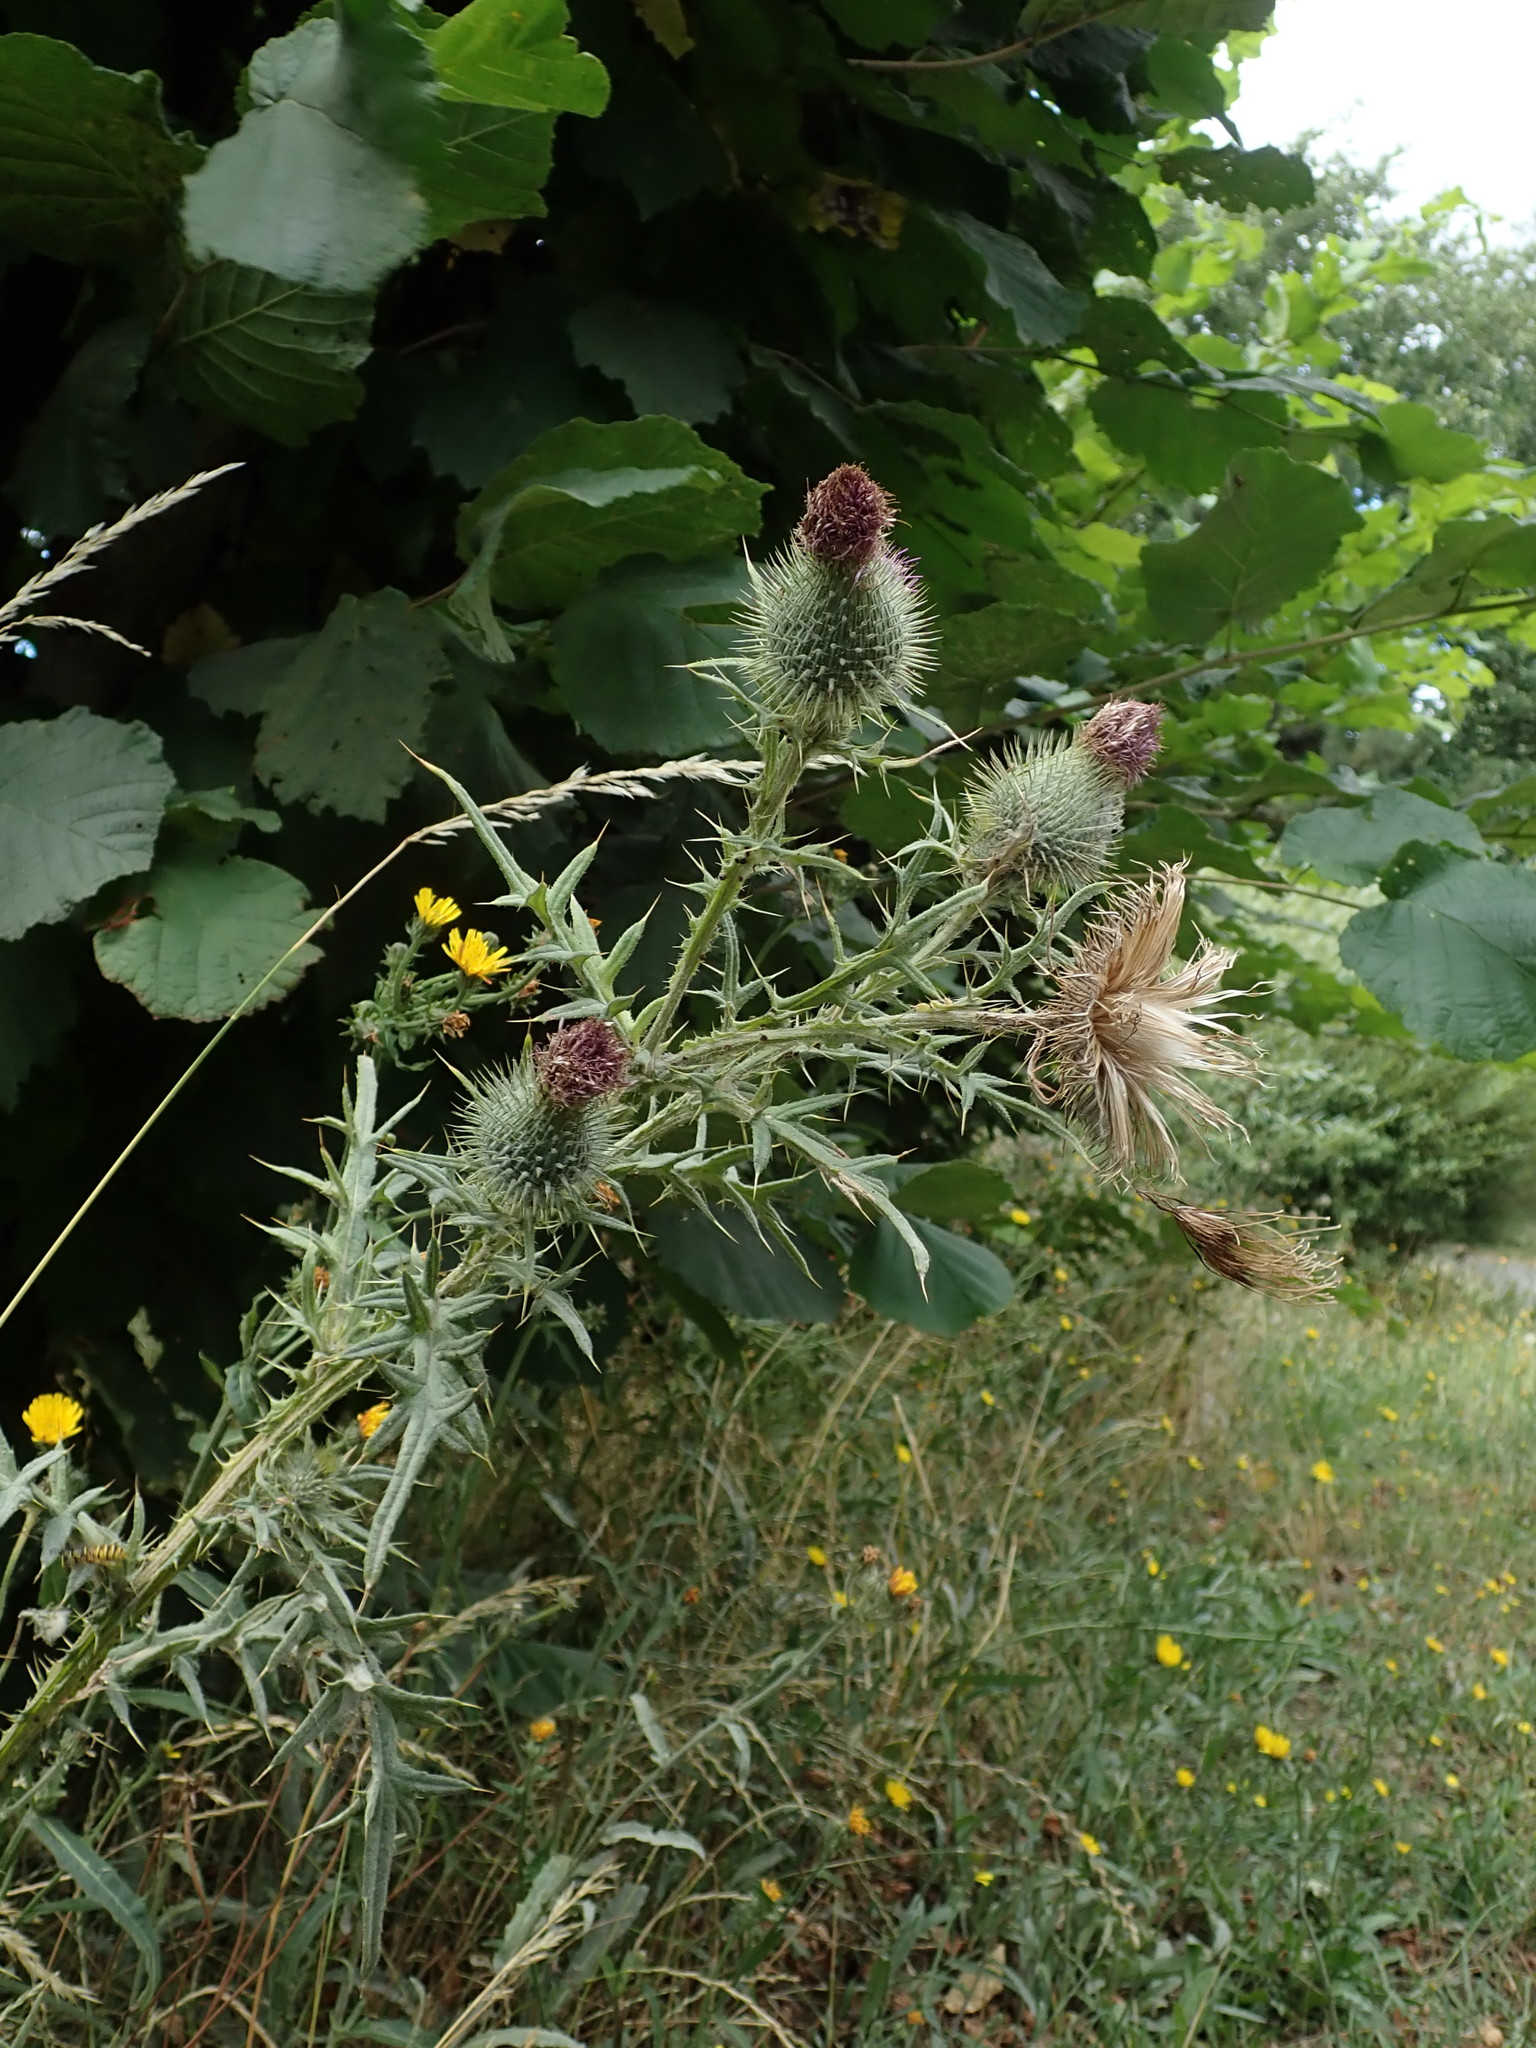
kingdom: Plantae
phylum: Tracheophyta
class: Magnoliopsida
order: Asterales
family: Asteraceae
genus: Cirsium
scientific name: Cirsium vulgare
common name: Bull thistle
